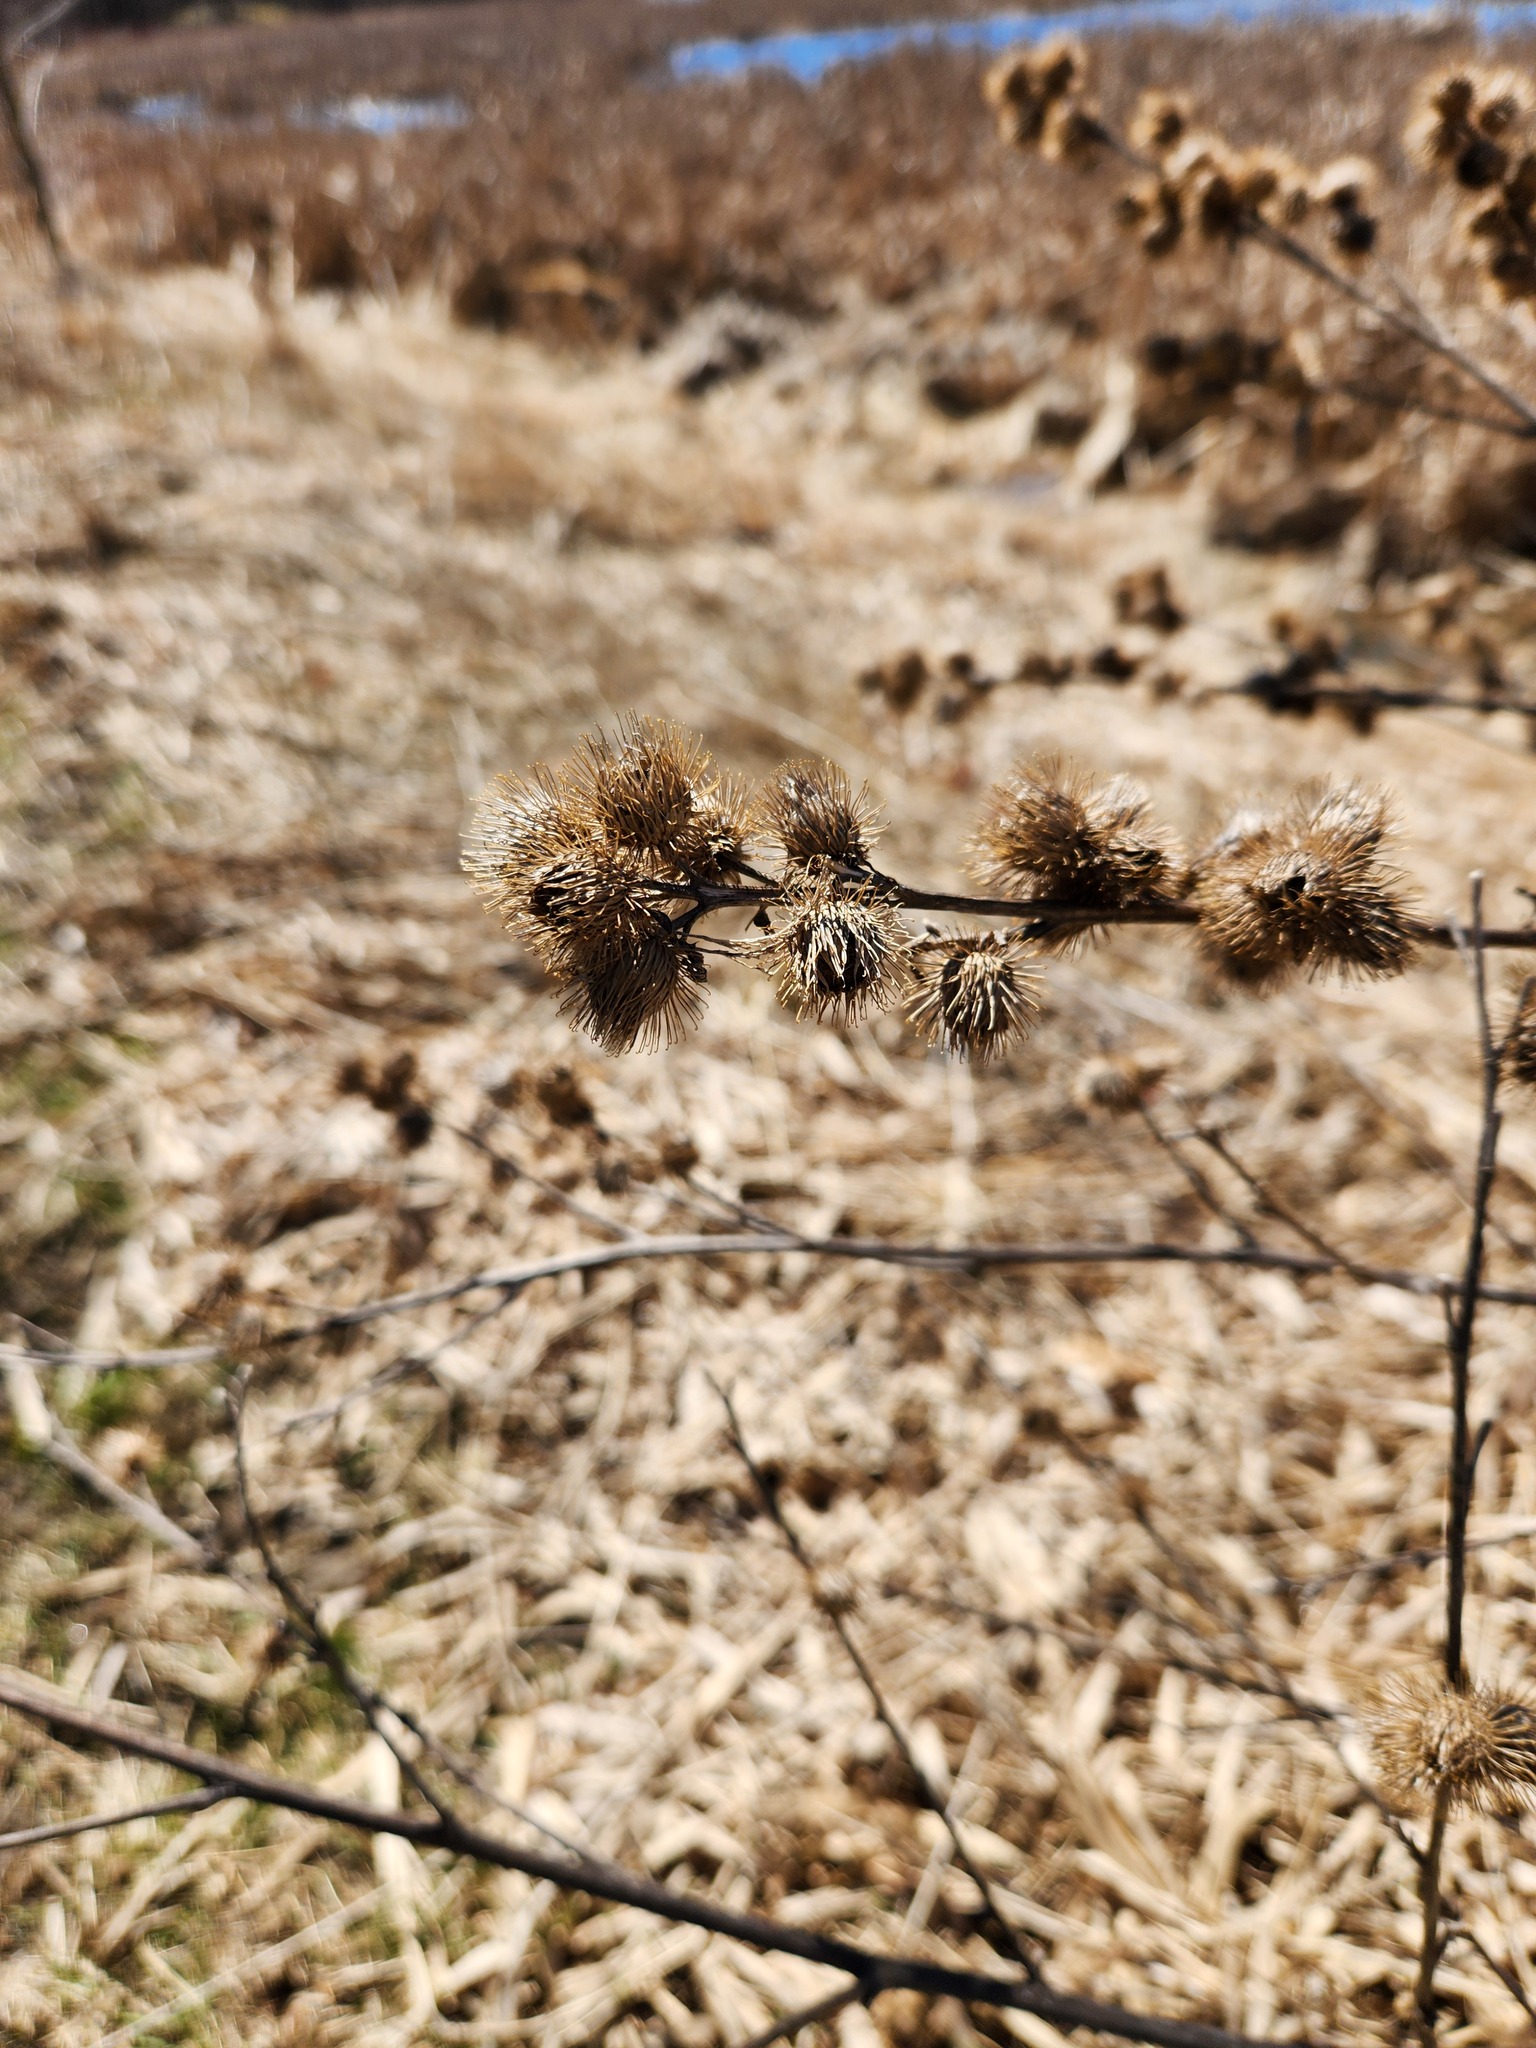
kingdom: Plantae
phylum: Tracheophyta
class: Magnoliopsida
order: Asterales
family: Asteraceae
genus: Arctium
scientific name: Arctium minus
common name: Lesser burdock
